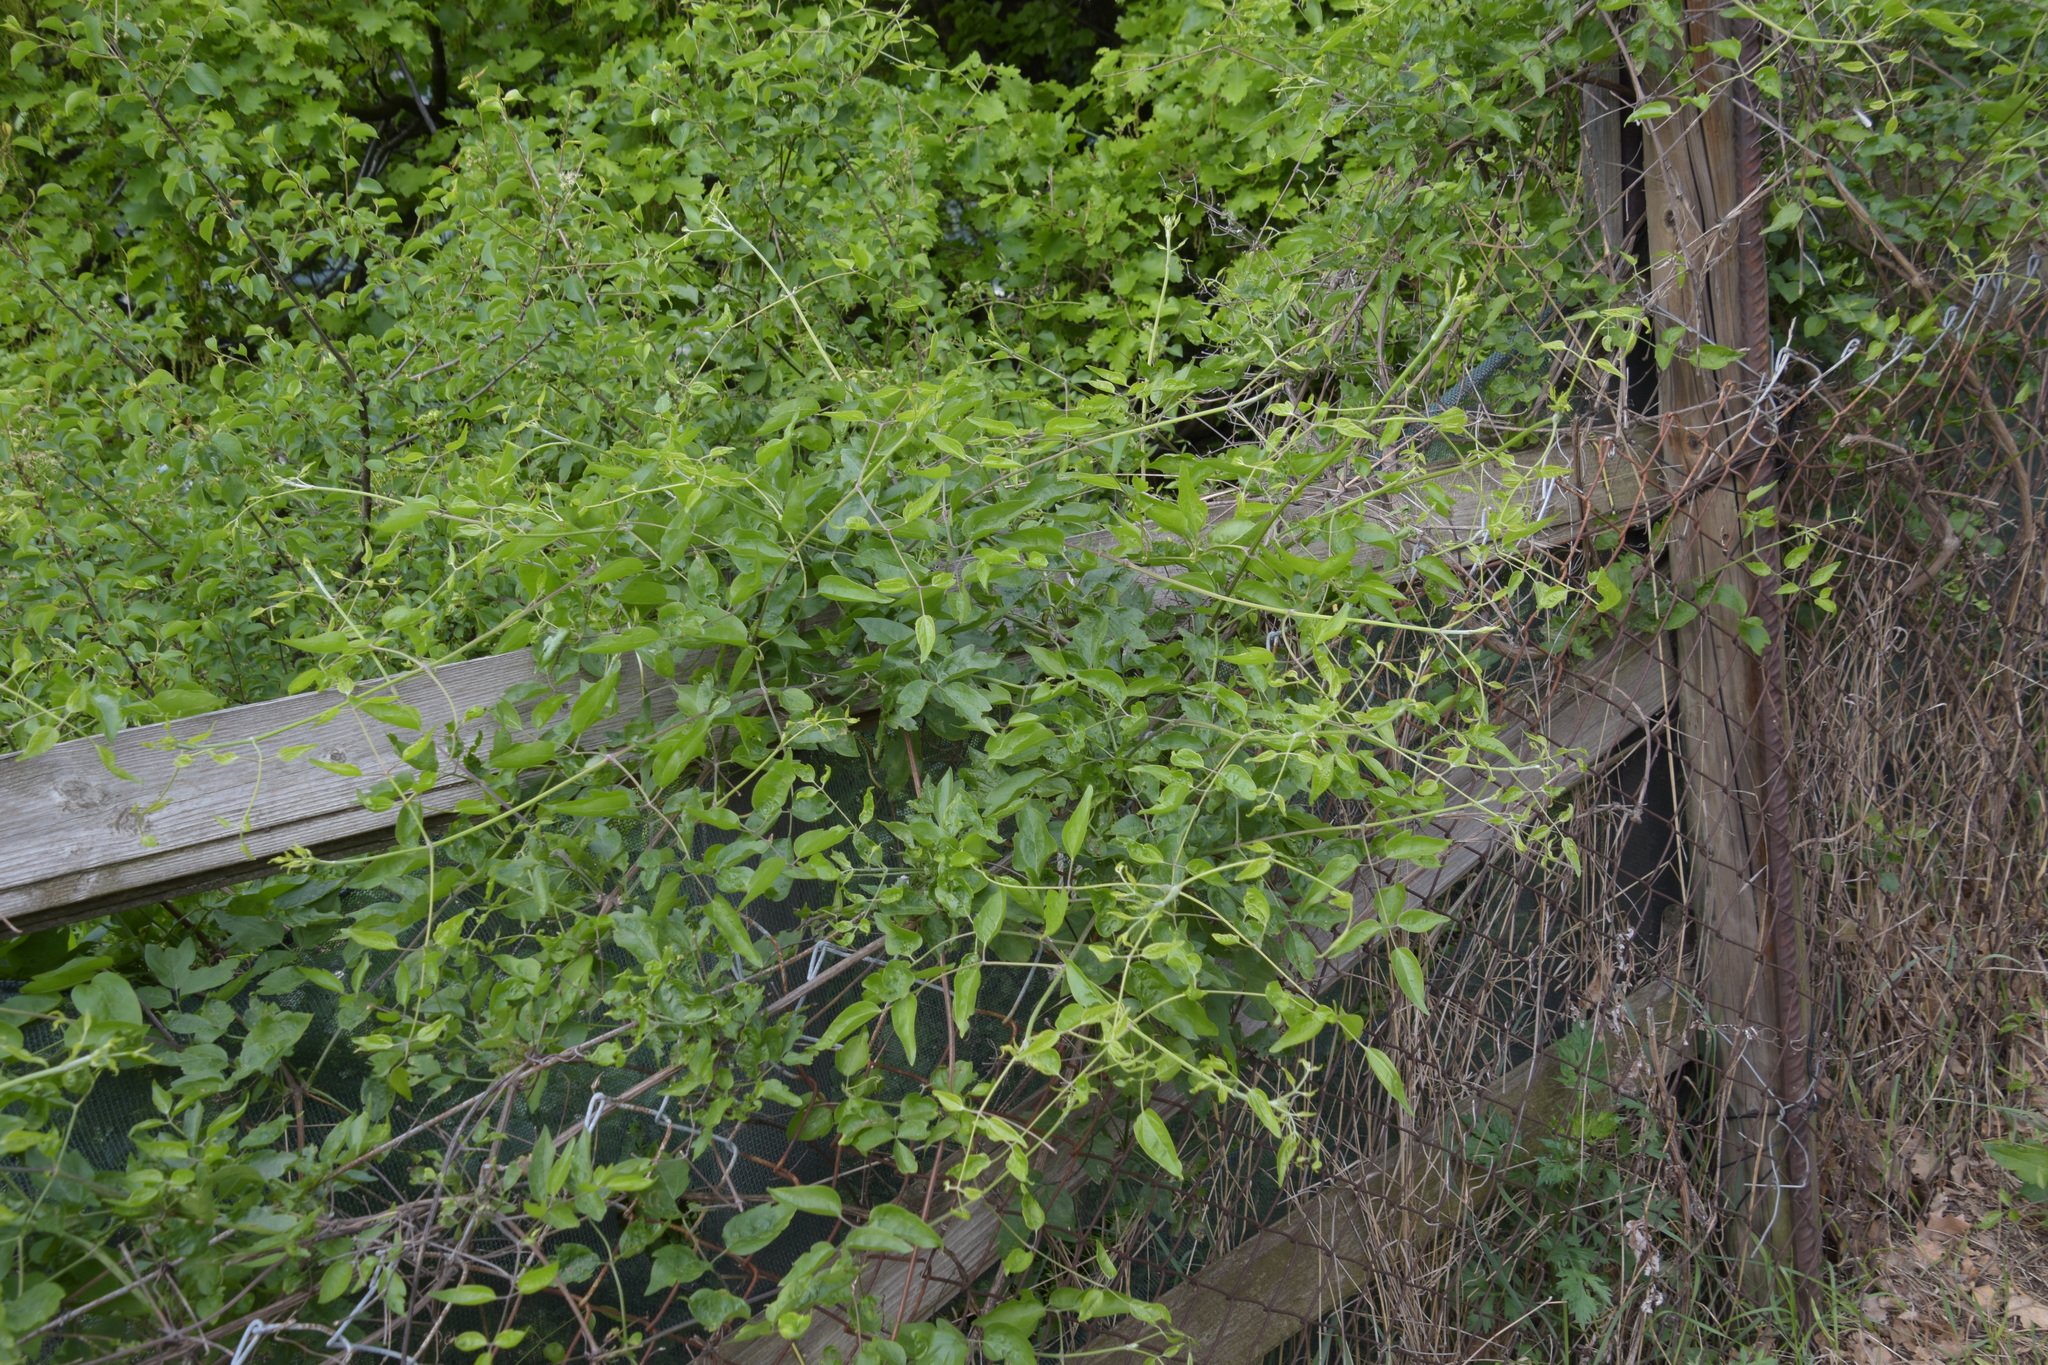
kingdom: Plantae
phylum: Tracheophyta
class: Magnoliopsida
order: Ranunculales
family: Ranunculaceae
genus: Clematis
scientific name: Clematis vitalba
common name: Evergreen clematis
